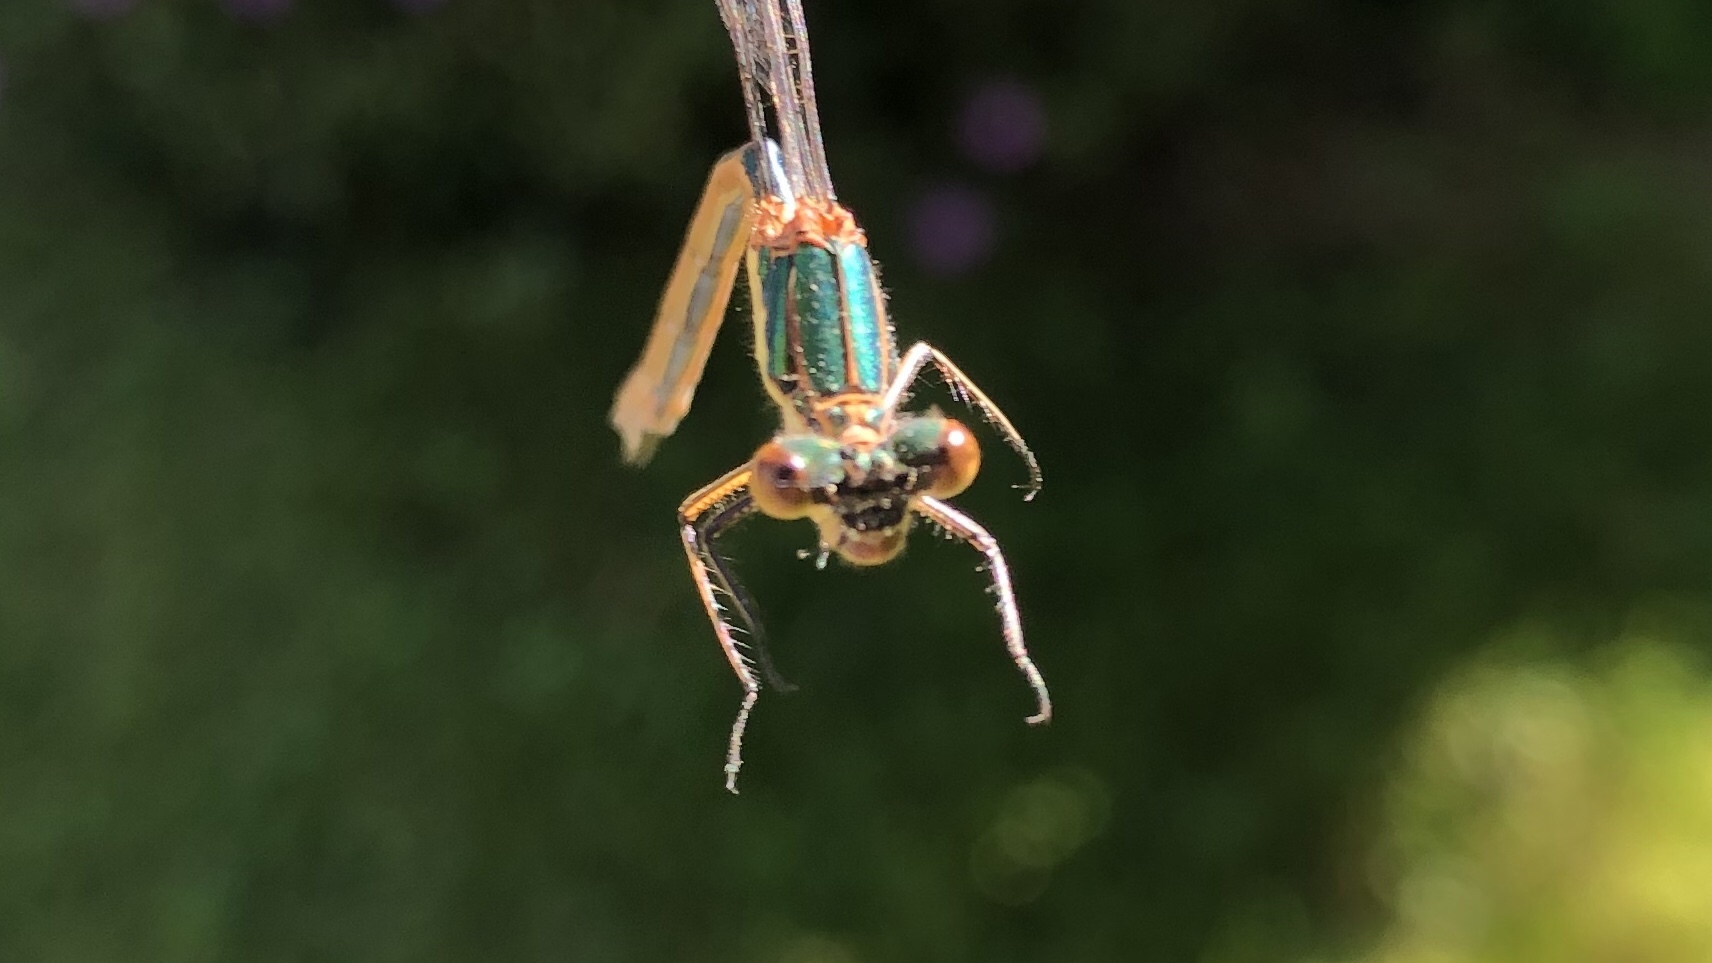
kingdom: Animalia
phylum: Arthropoda
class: Insecta
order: Odonata
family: Lestidae
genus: Lestes
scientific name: Lestes dryas
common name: Scarce emerald damselfly
